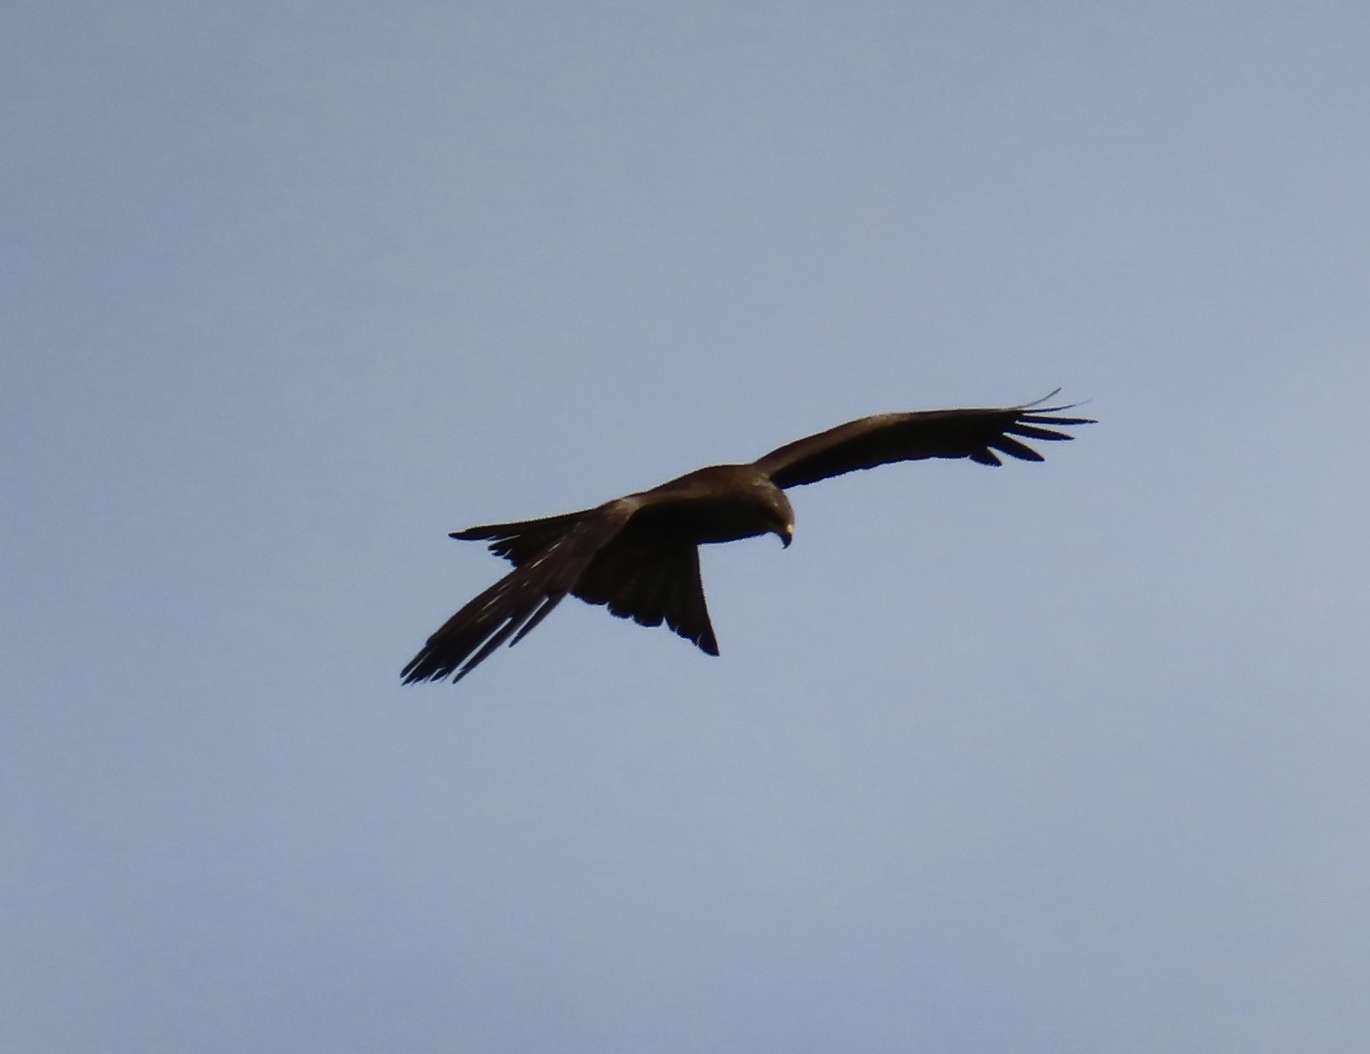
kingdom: Animalia
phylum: Chordata
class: Aves
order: Accipitriformes
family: Accipitridae
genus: Milvus
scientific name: Milvus migrans
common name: Black kite
